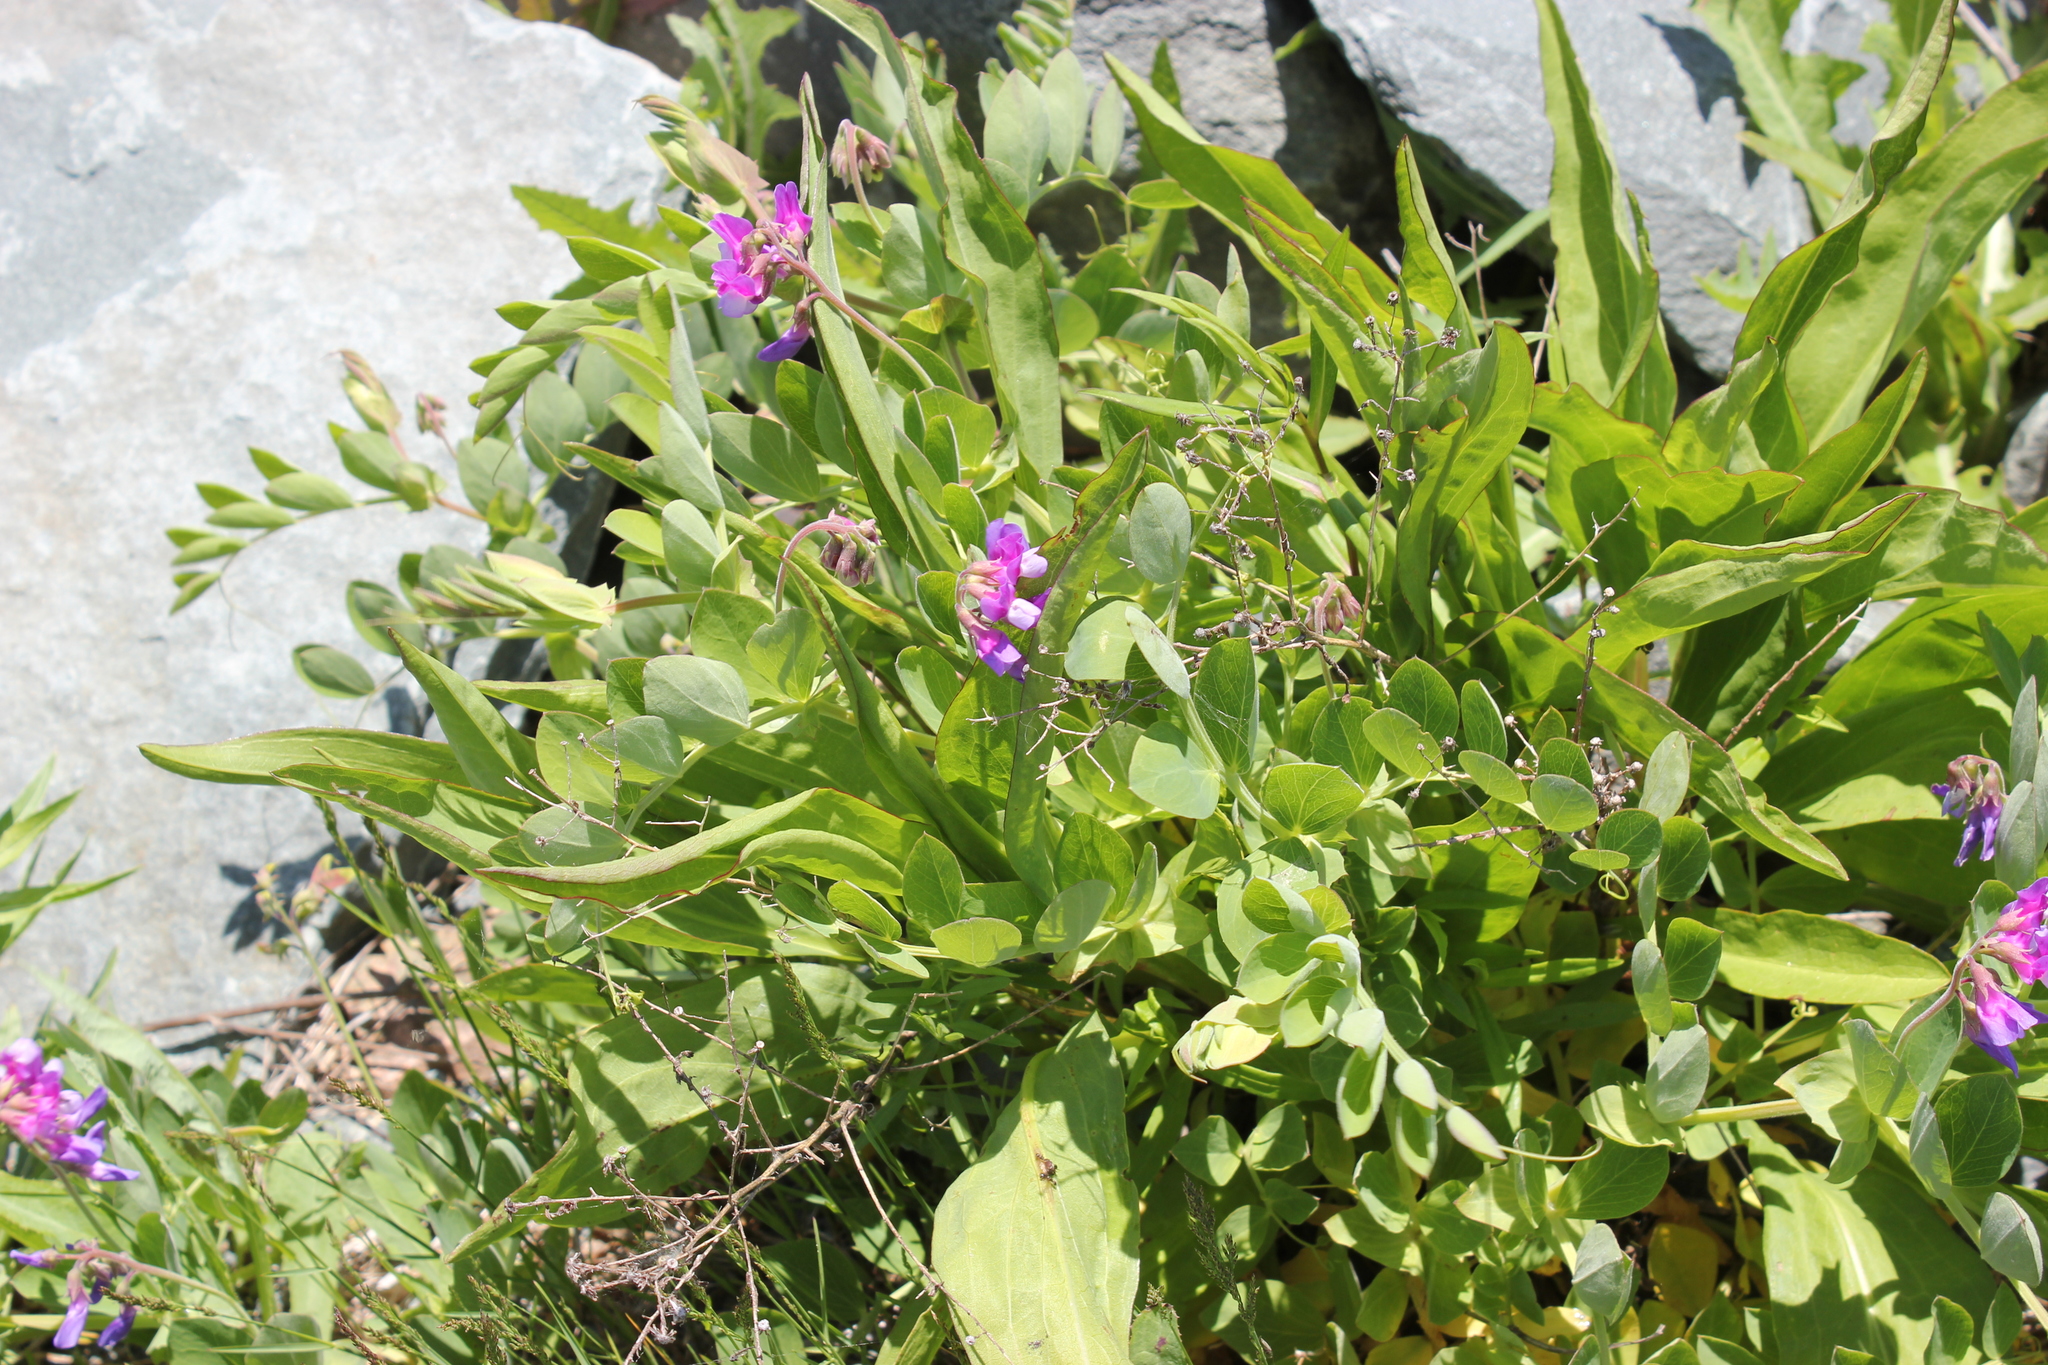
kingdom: Plantae
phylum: Tracheophyta
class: Magnoliopsida
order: Fabales
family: Fabaceae
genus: Lathyrus
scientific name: Lathyrus japonicus
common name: Sea pea
